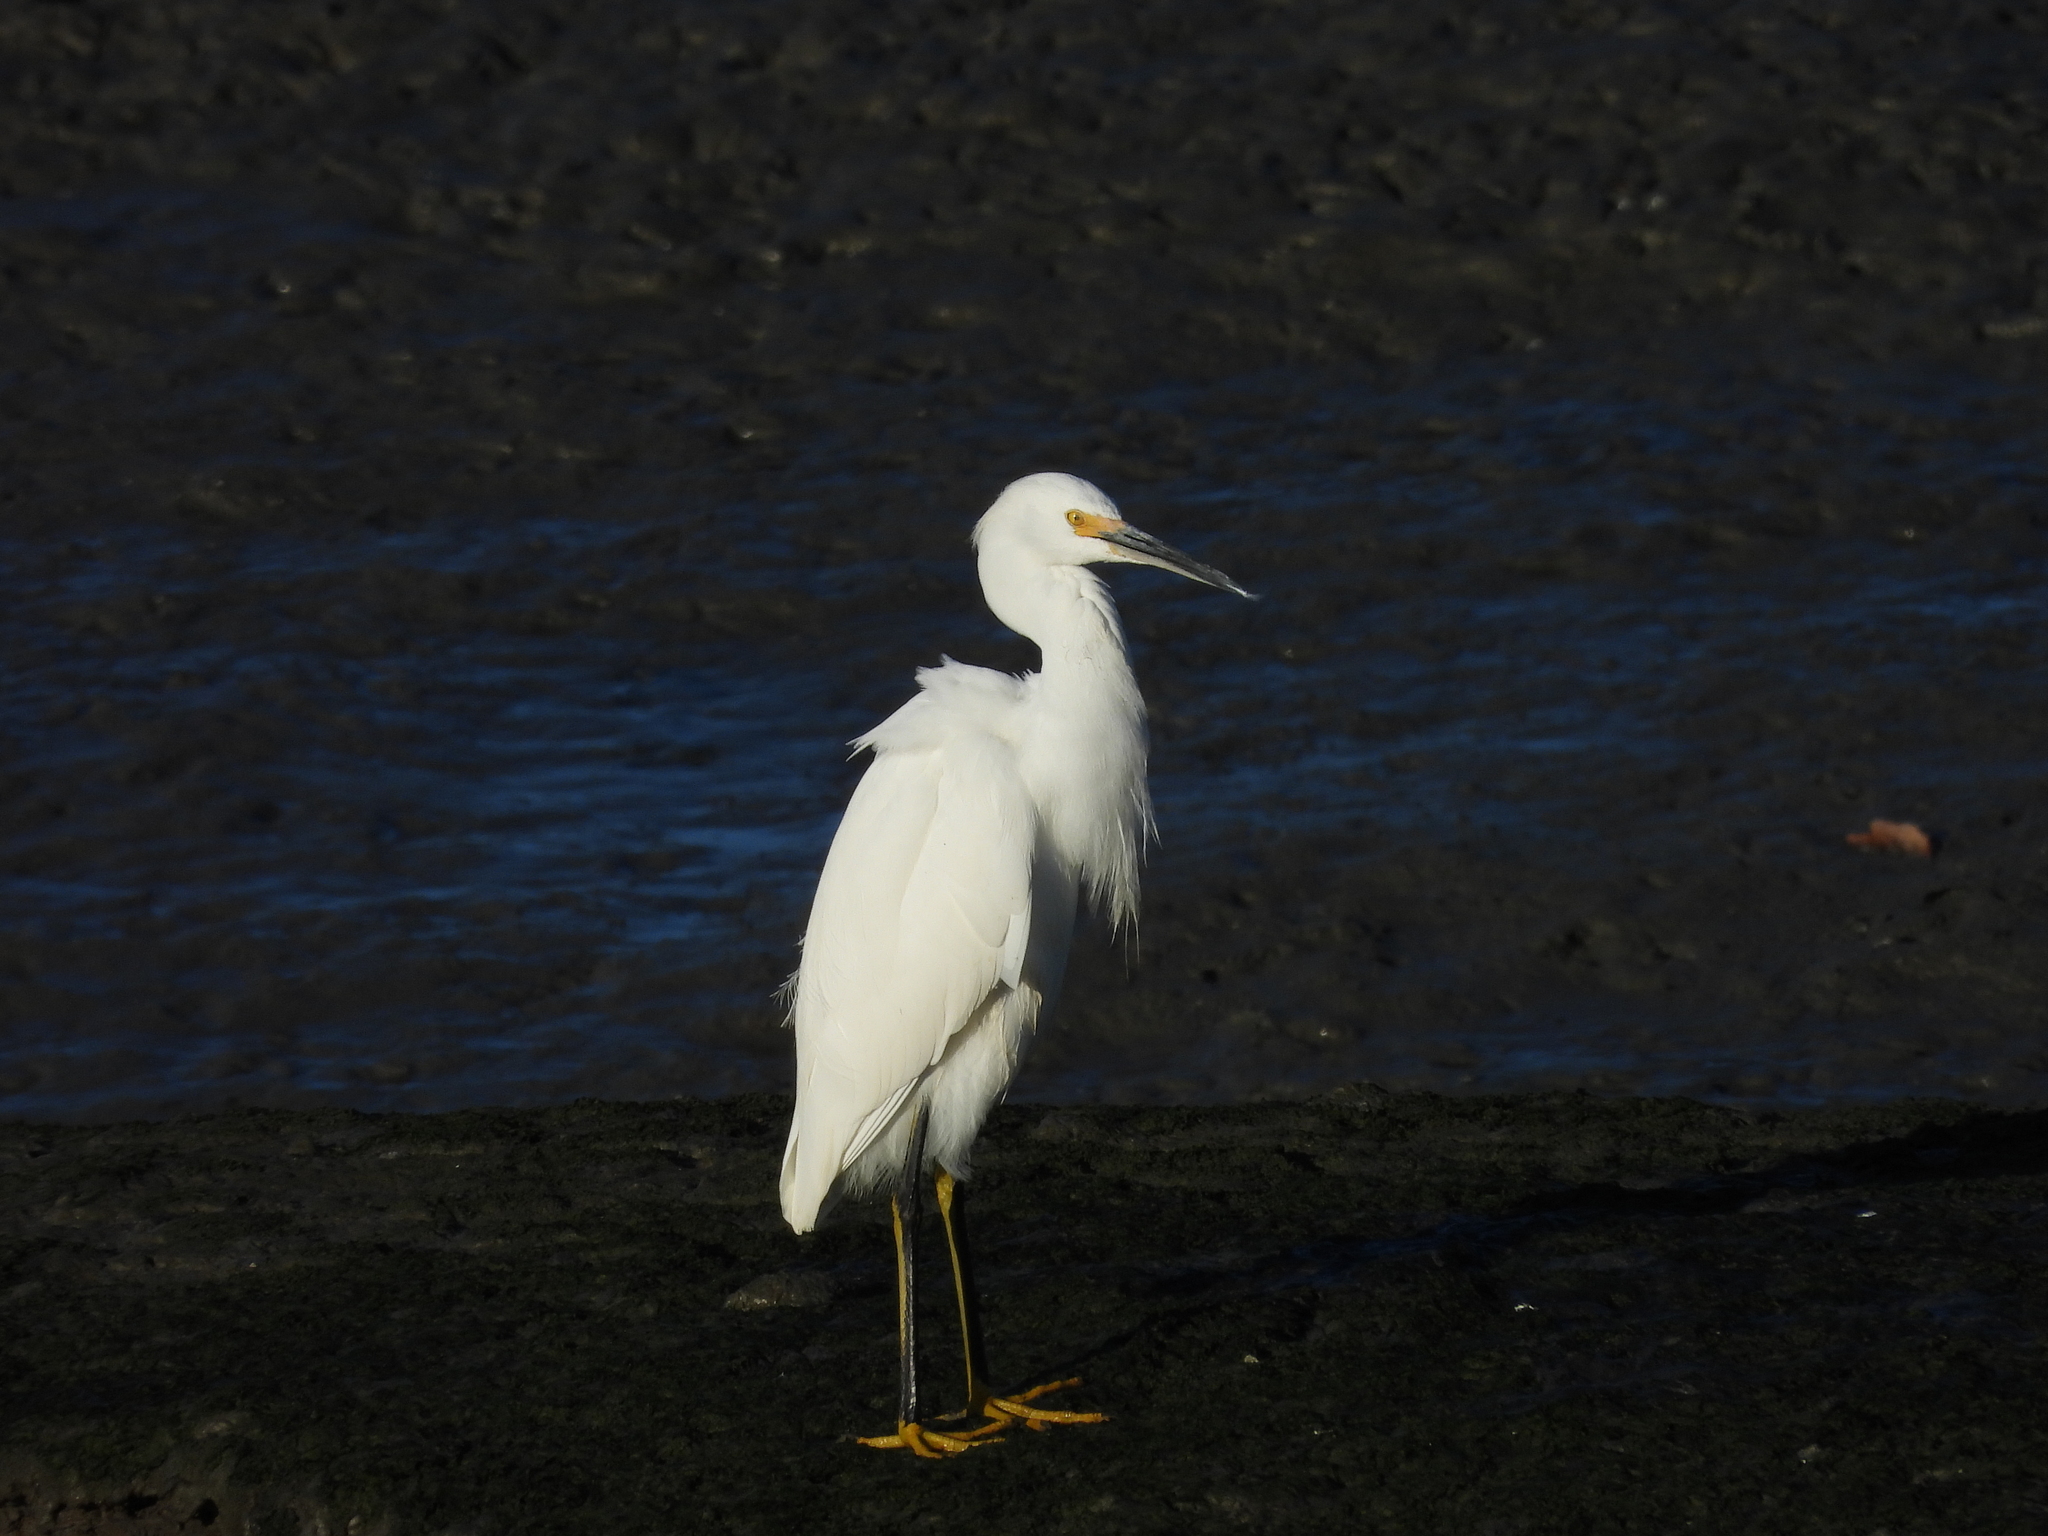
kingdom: Animalia
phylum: Chordata
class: Aves
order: Pelecaniformes
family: Ardeidae
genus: Egretta
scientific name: Egretta thula
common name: Snowy egret
